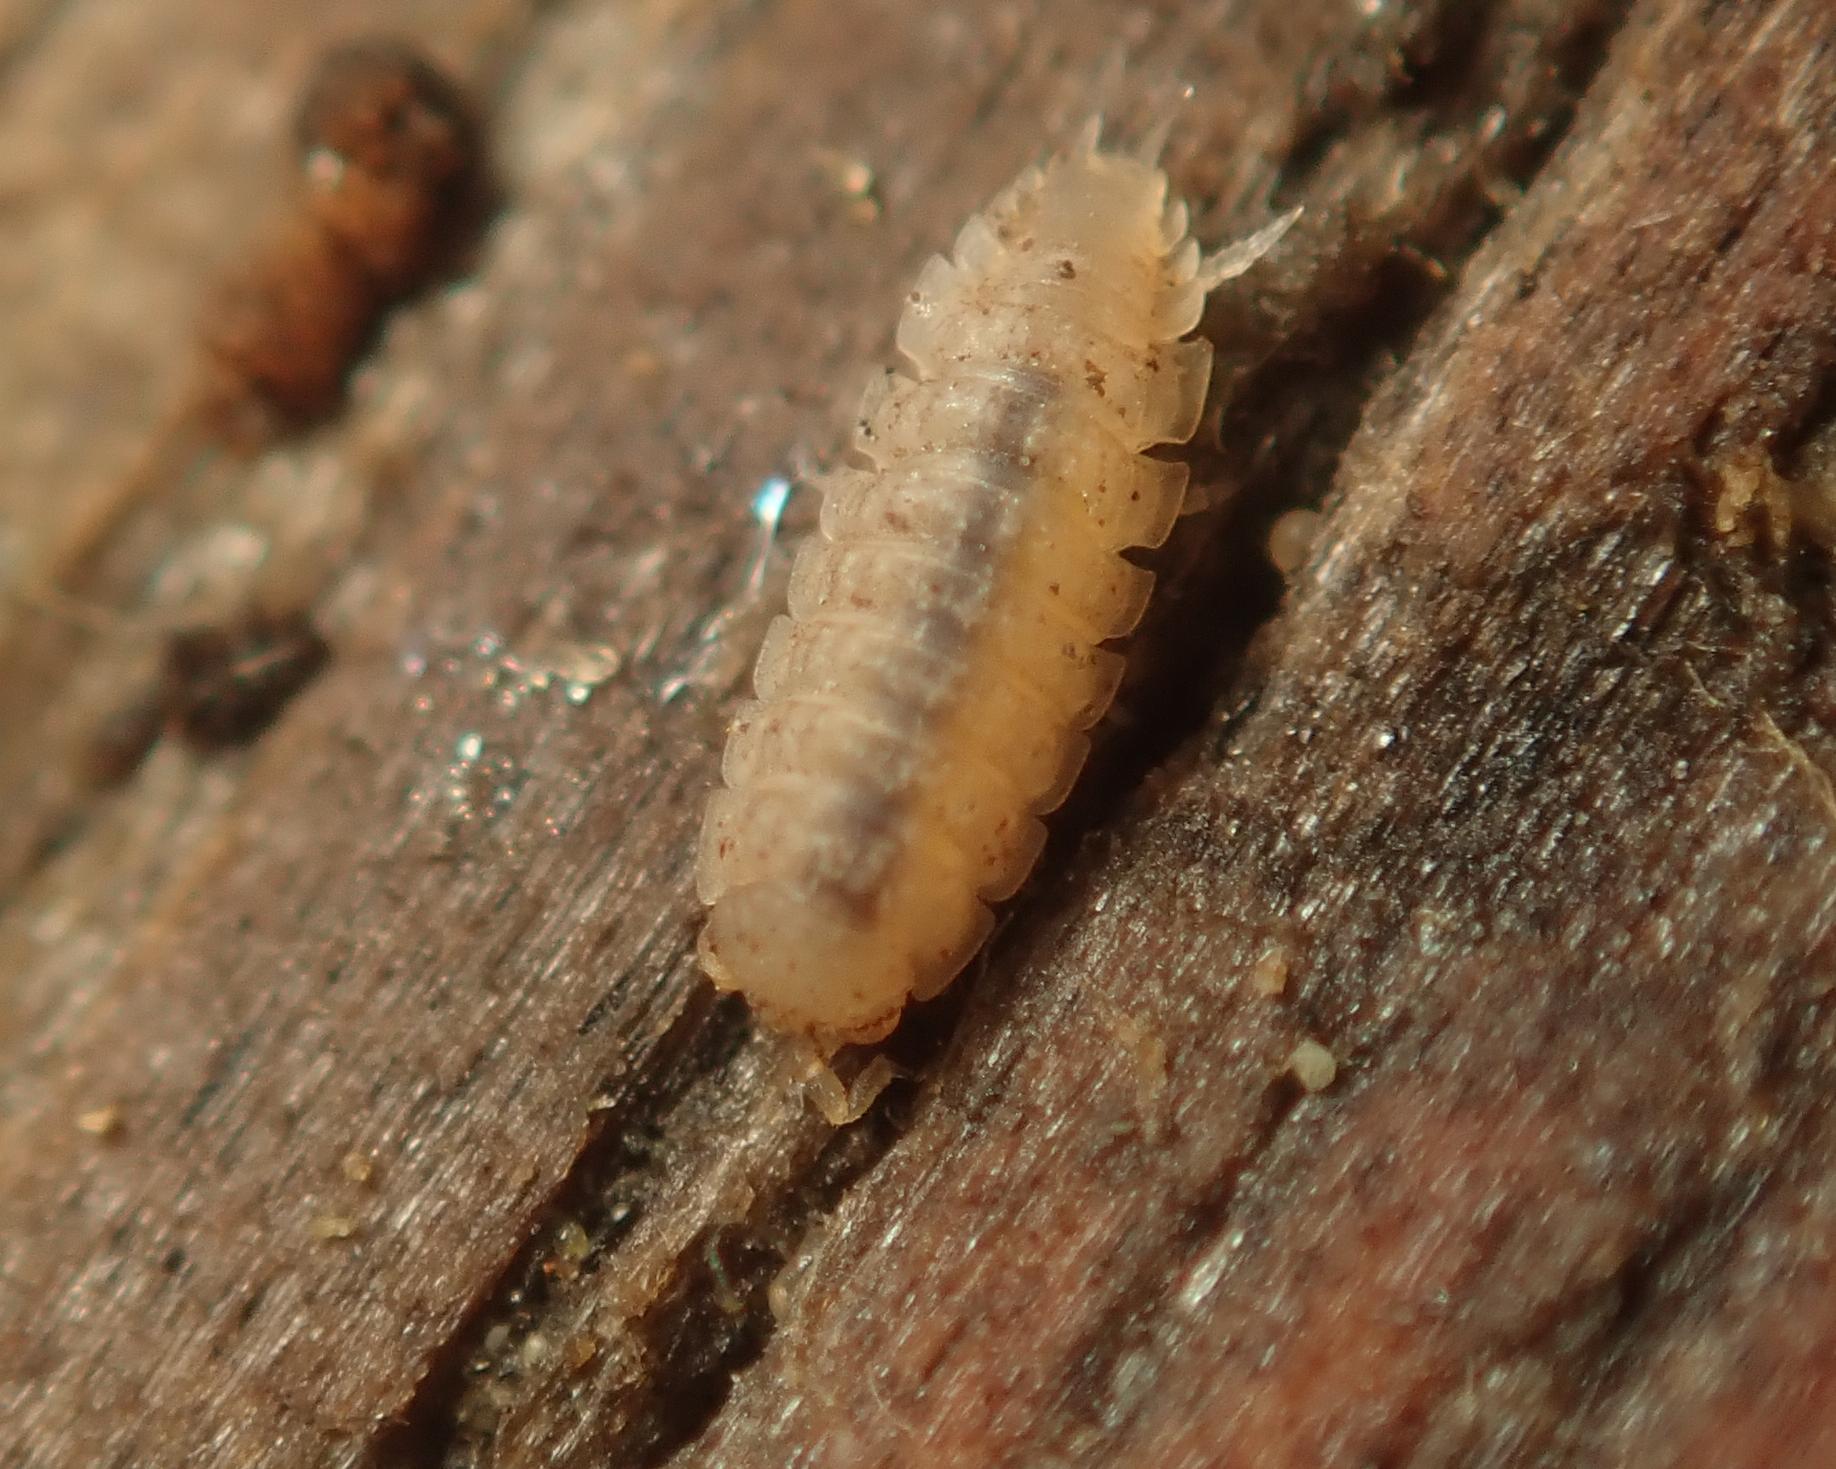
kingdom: Animalia
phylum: Arthropoda
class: Malacostraca
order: Isopoda
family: Trichoniscidae
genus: Haplophthalmus
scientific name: Haplophthalmus danicus
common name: Pillbug
